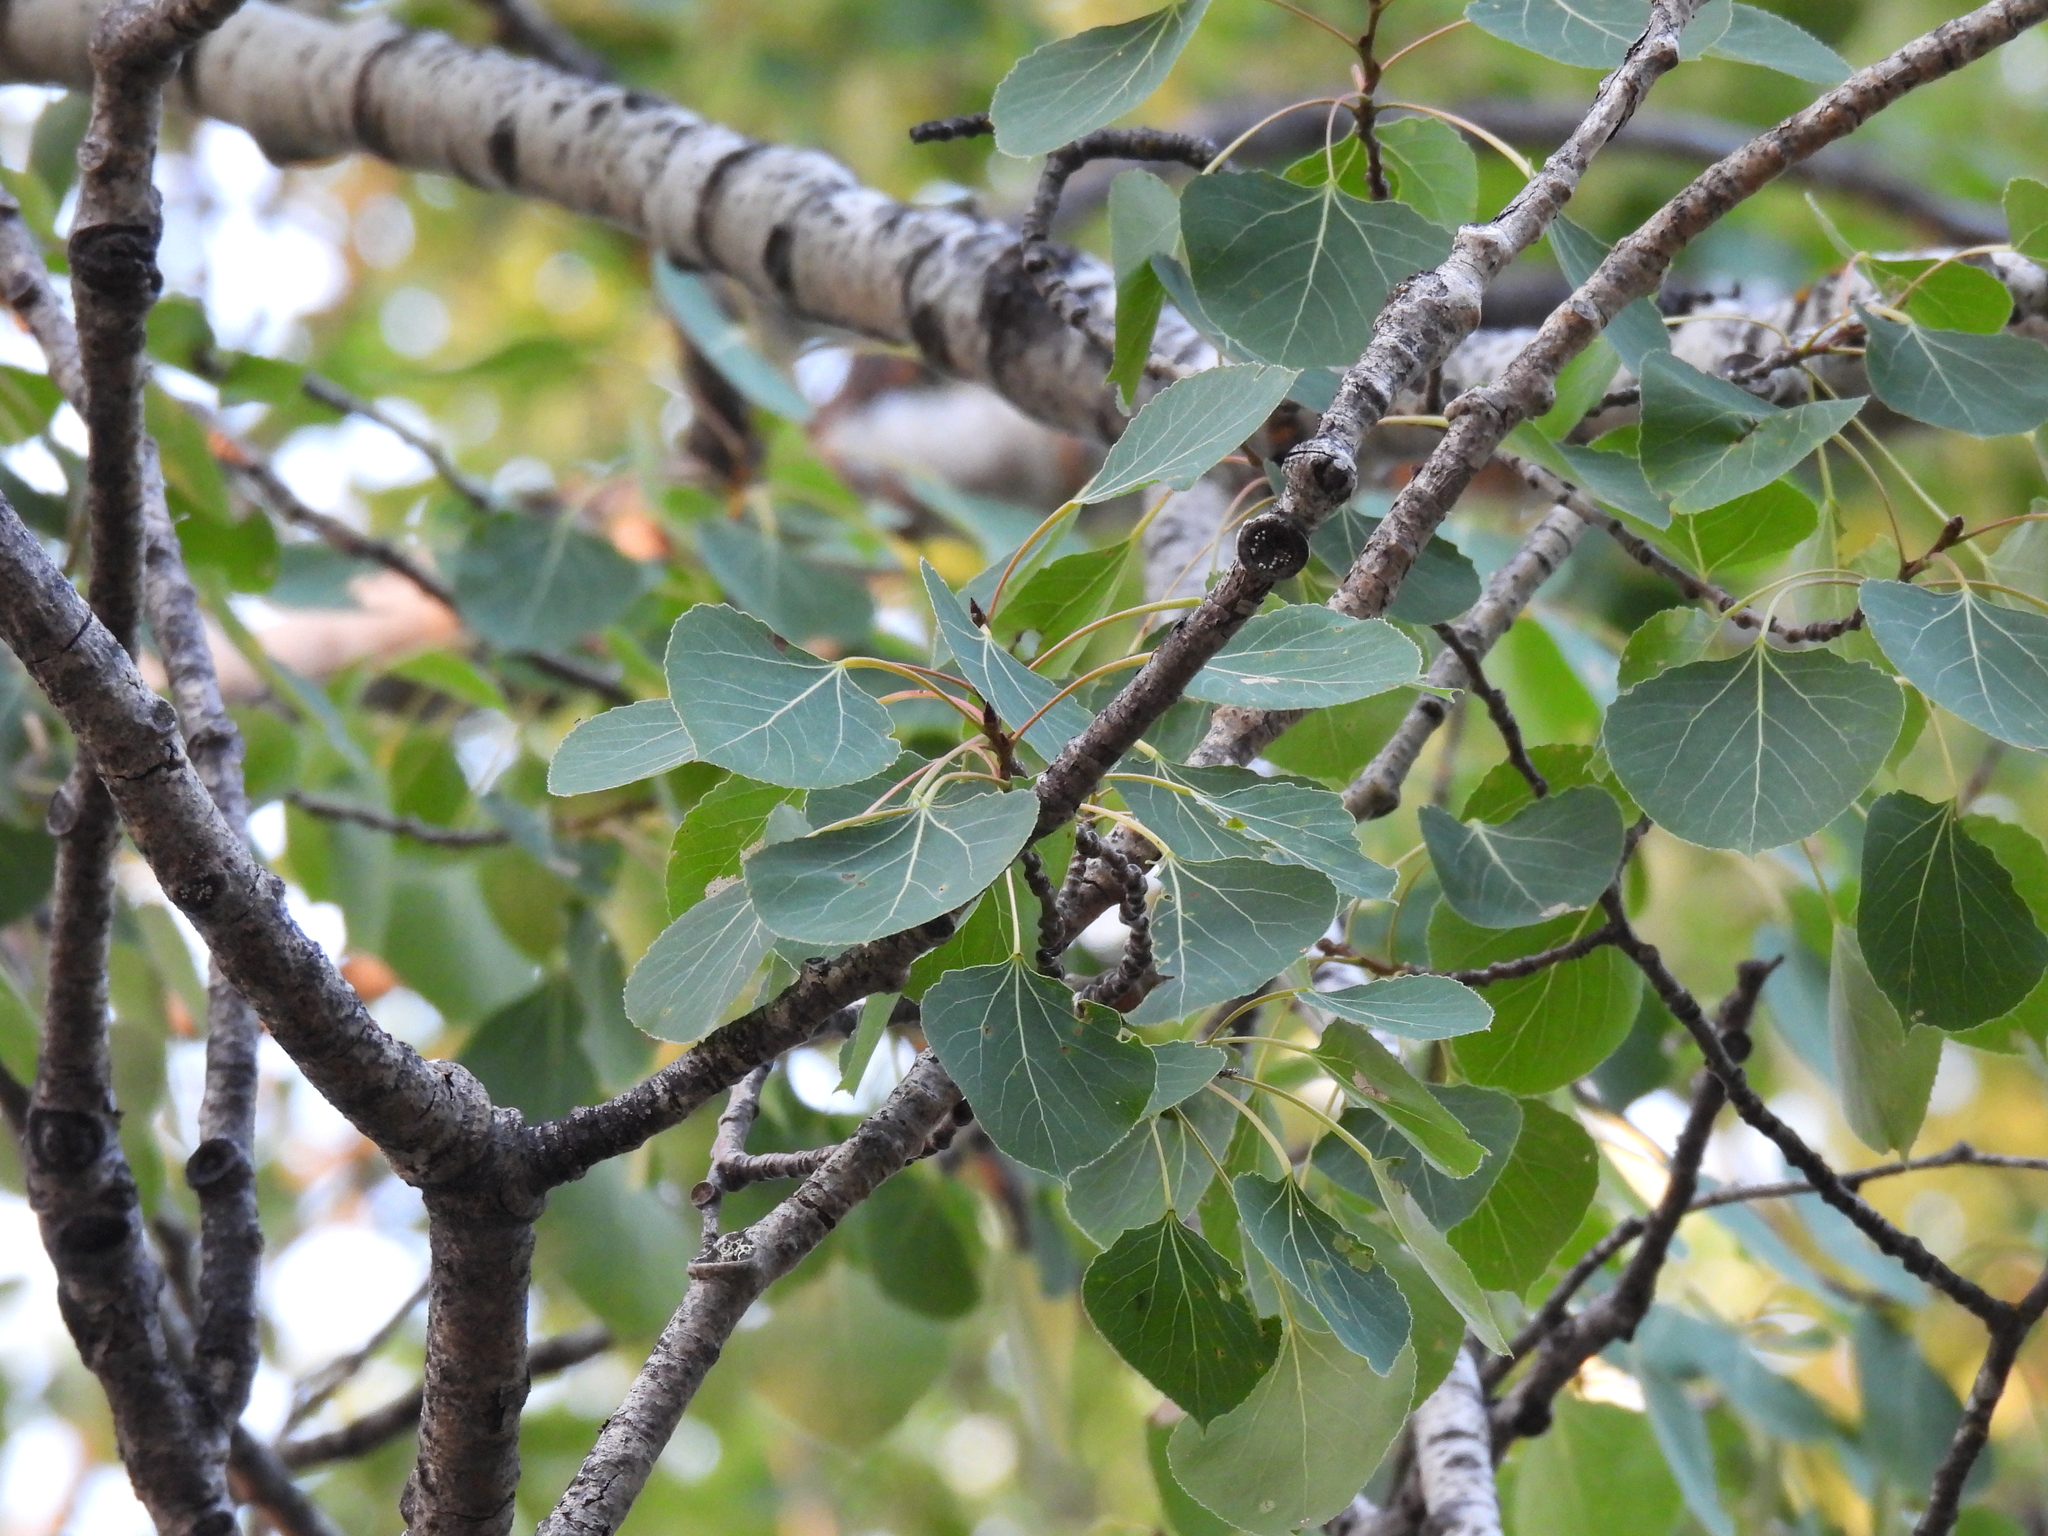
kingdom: Plantae
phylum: Tracheophyta
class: Magnoliopsida
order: Malpighiales
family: Salicaceae
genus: Populus
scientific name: Populus tremuloides
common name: Quaking aspen
